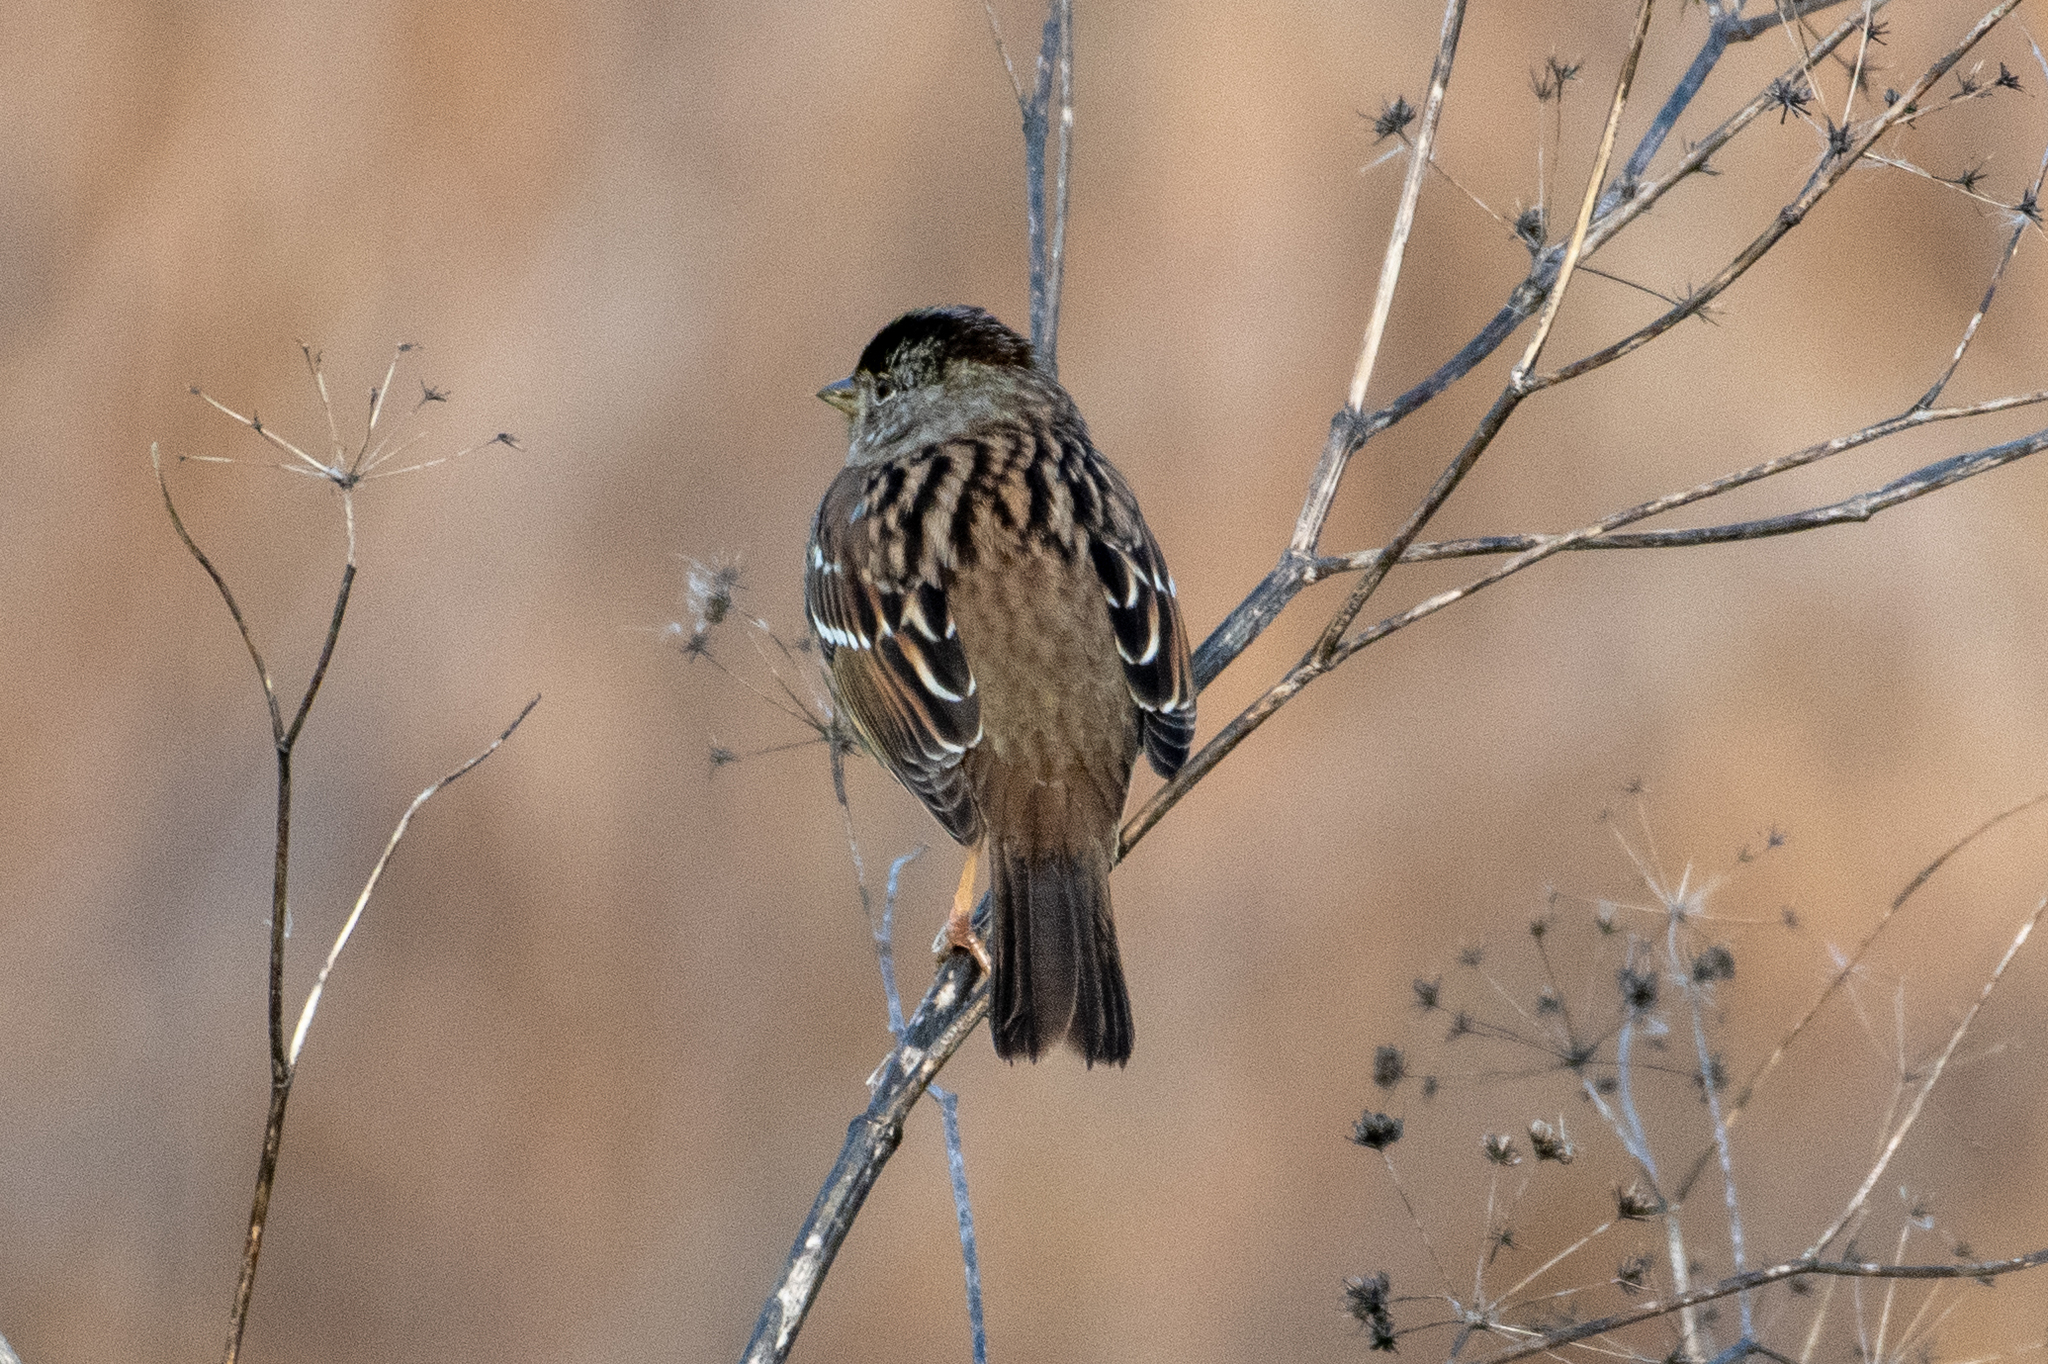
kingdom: Animalia
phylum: Chordata
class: Aves
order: Passeriformes
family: Passerellidae
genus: Zonotrichia
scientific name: Zonotrichia atricapilla
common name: Golden-crowned sparrow
